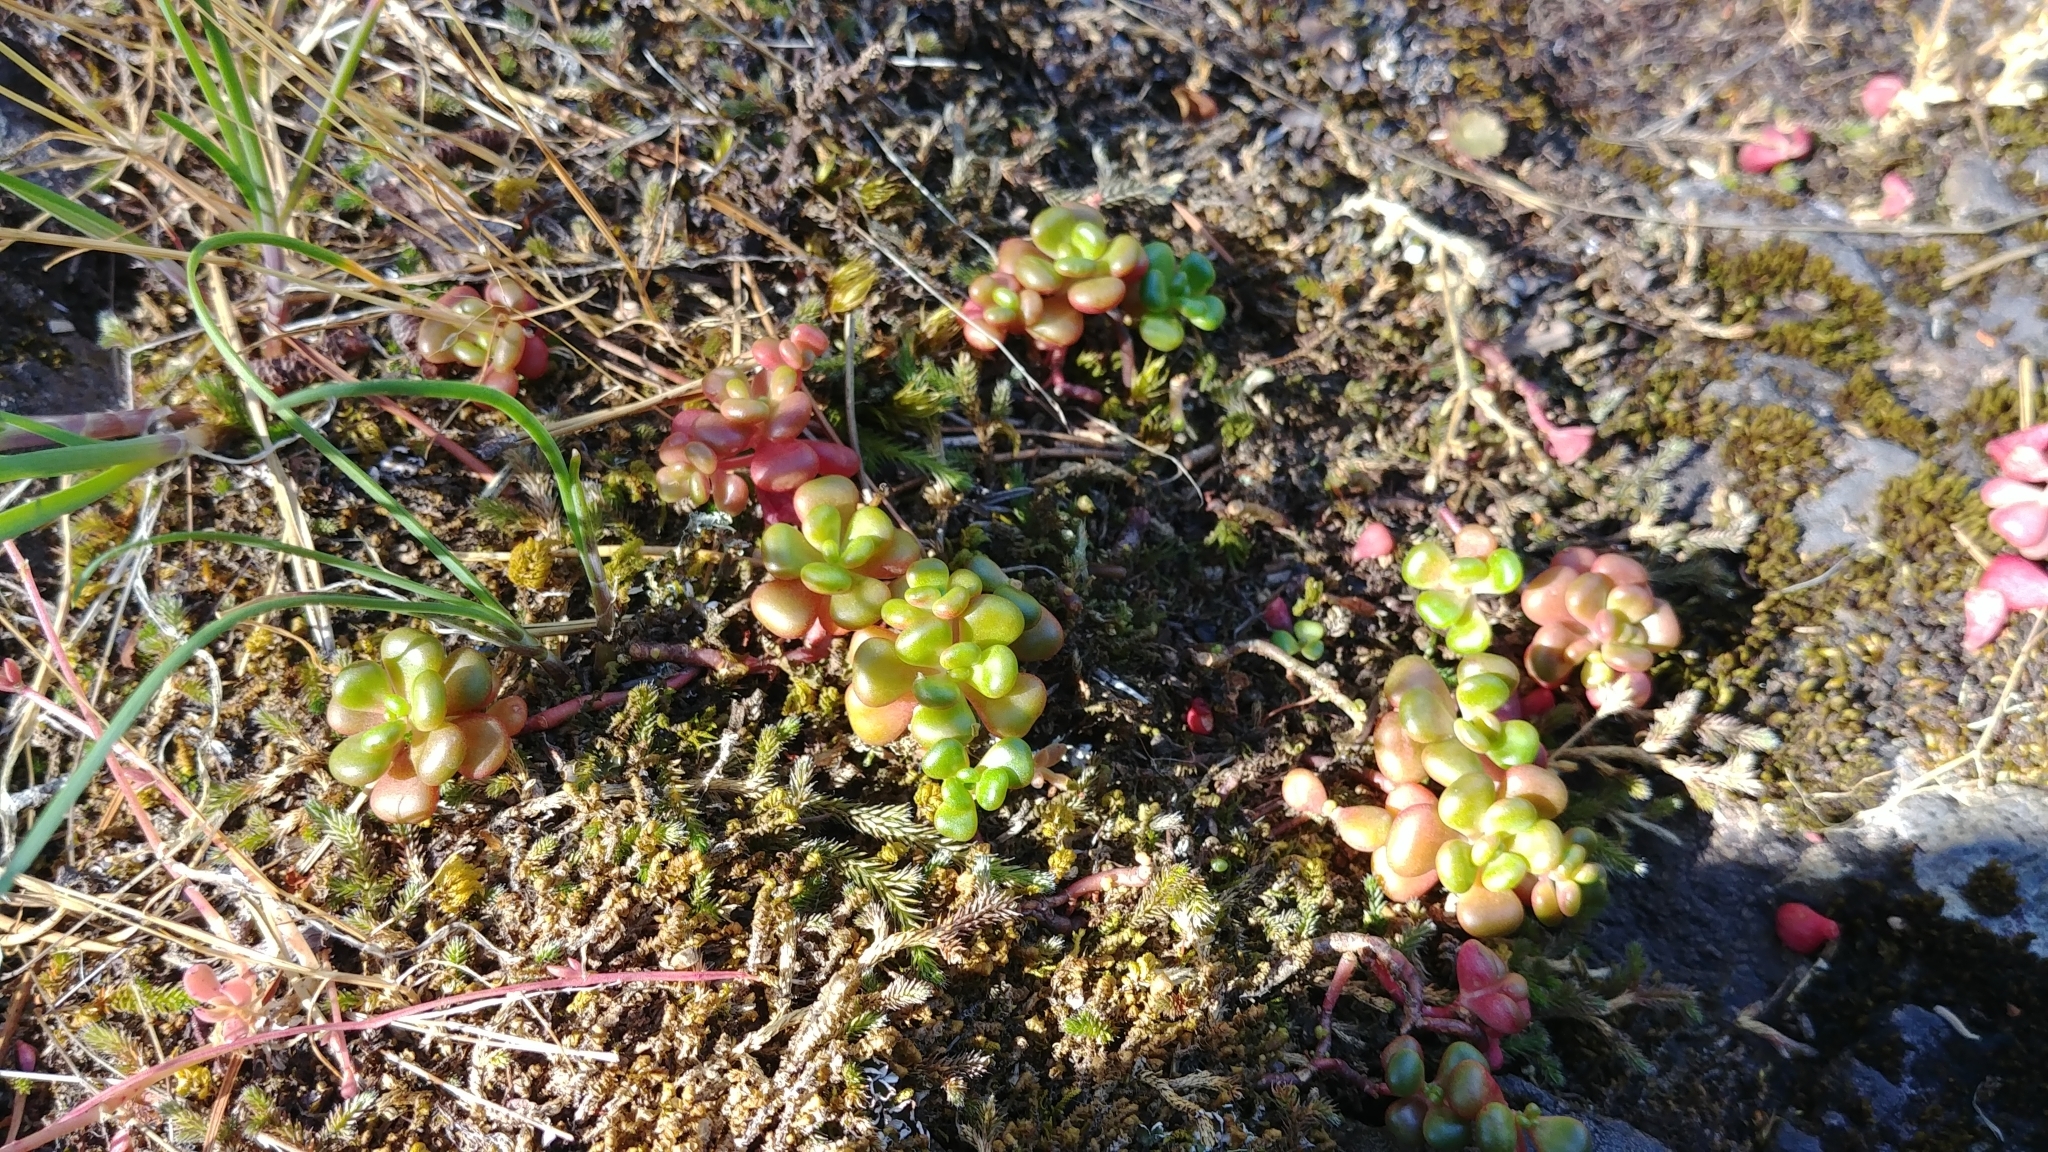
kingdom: Plantae
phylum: Tracheophyta
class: Magnoliopsida
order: Saxifragales
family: Crassulaceae
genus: Sedum
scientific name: Sedum oreganum
